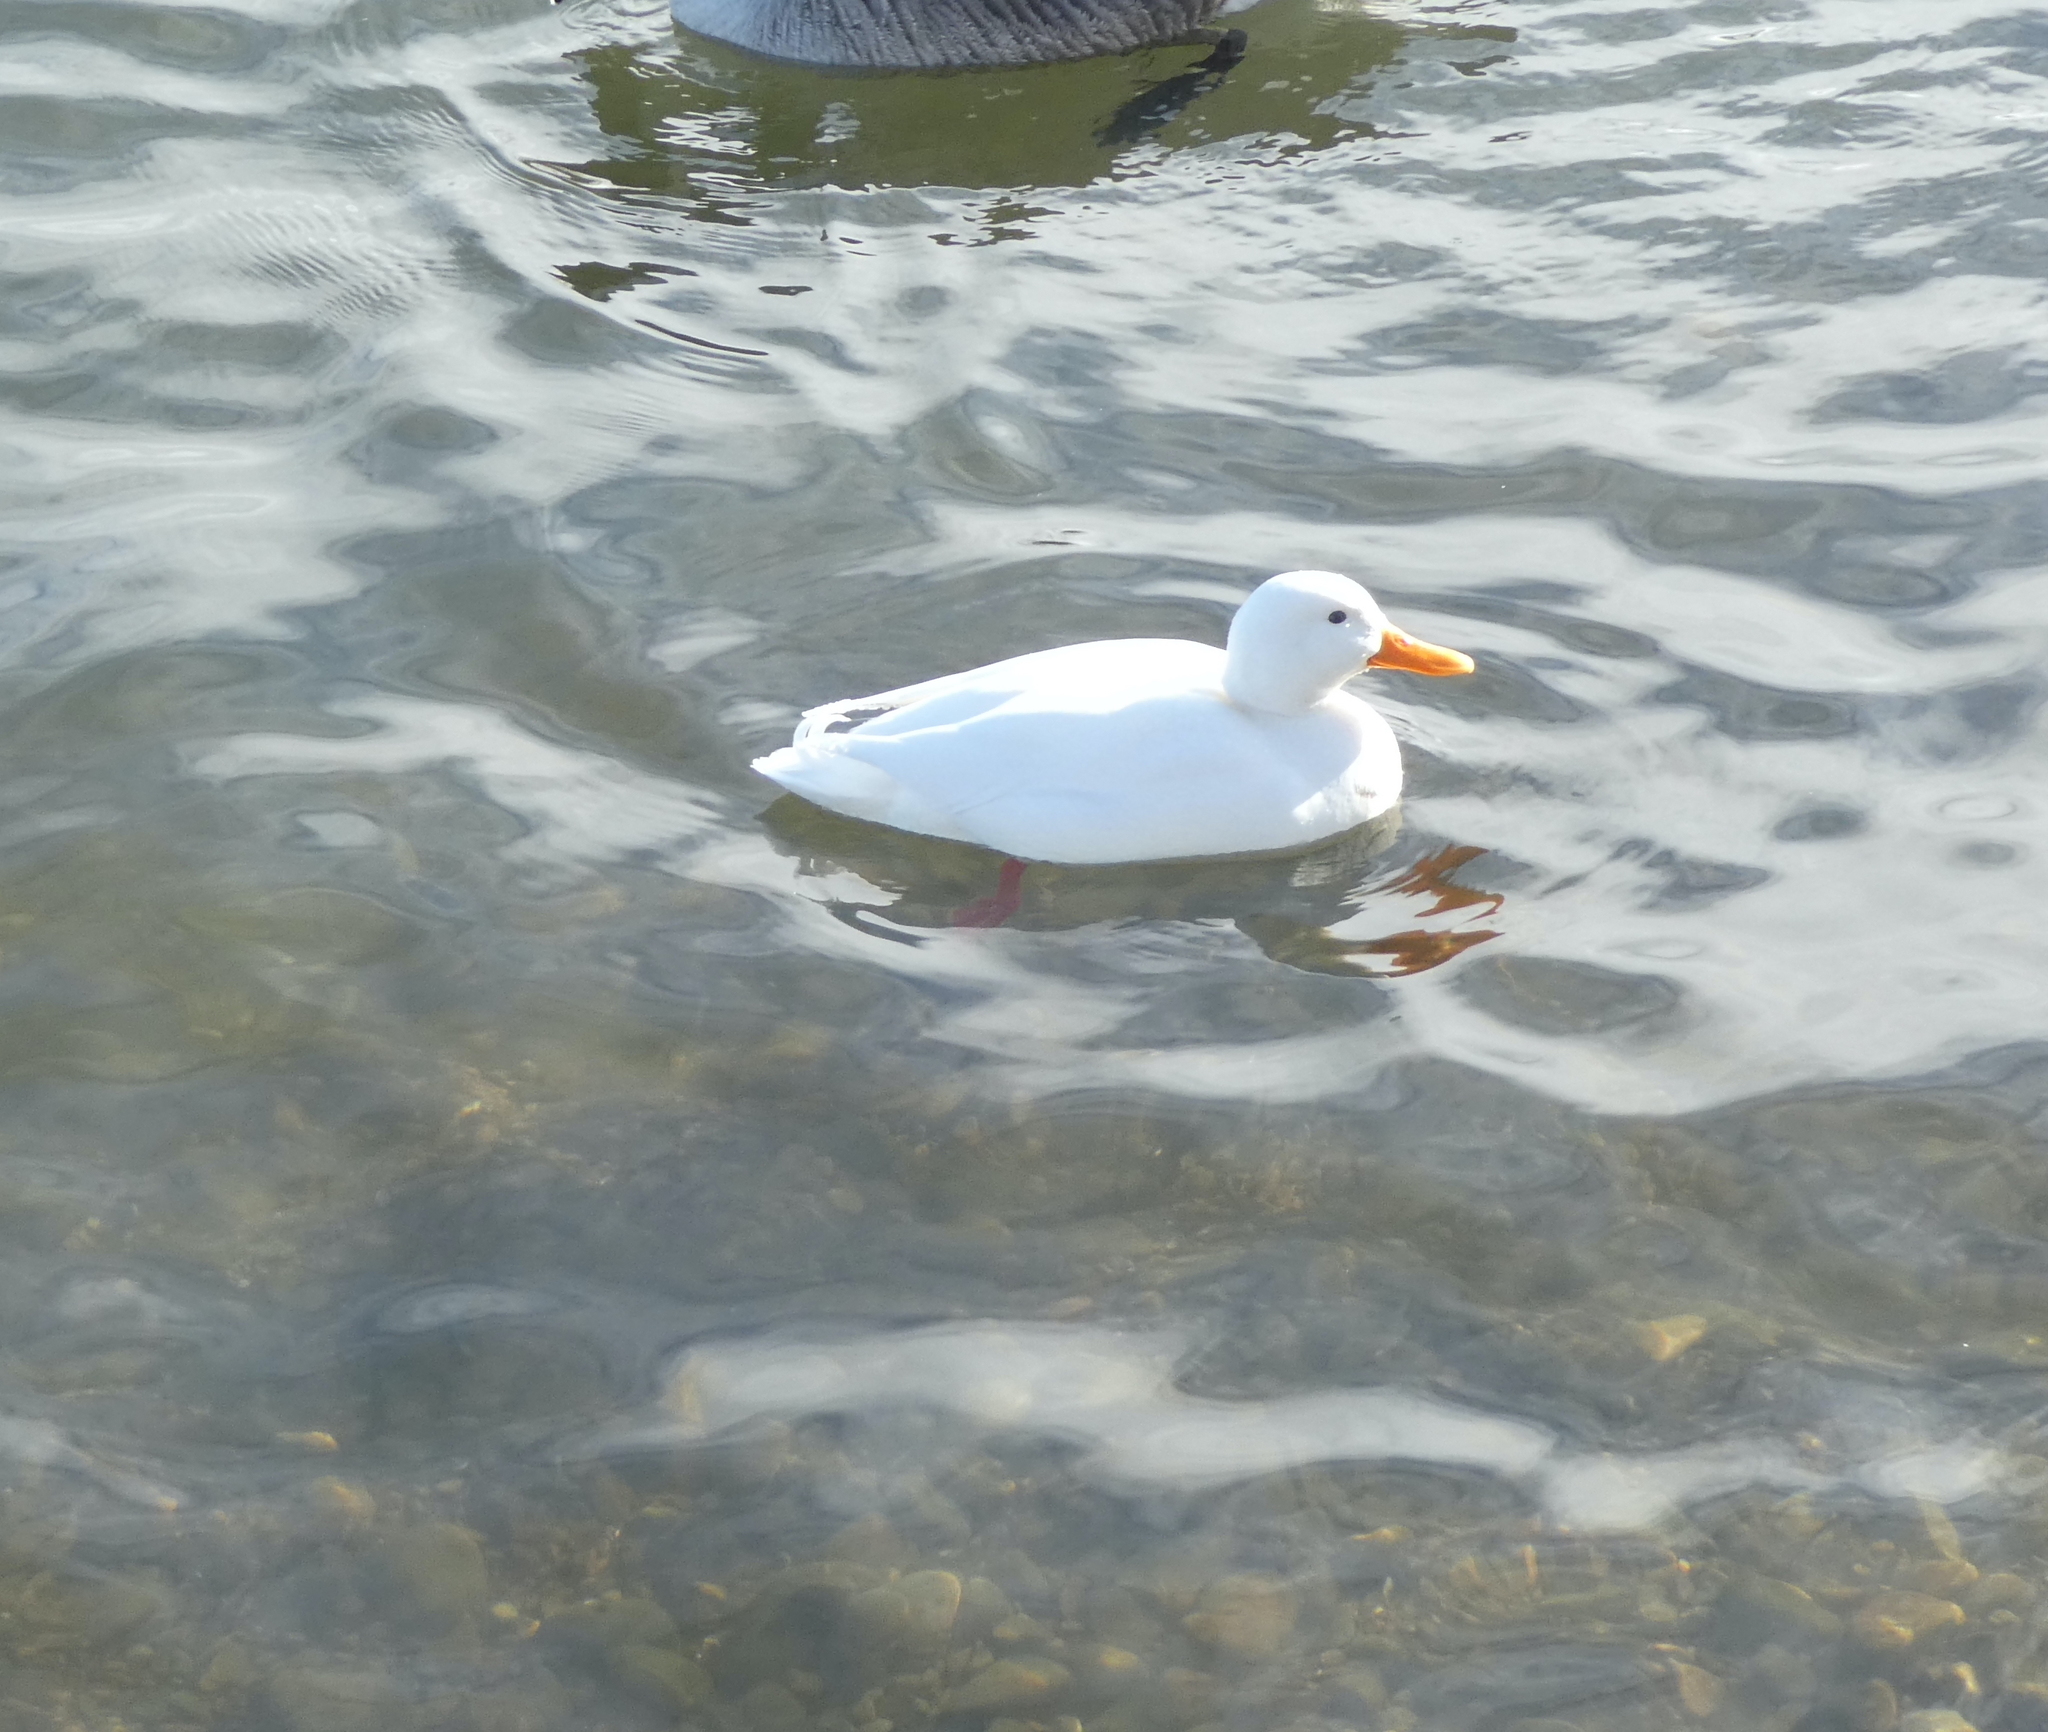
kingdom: Animalia
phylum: Chordata
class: Aves
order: Anseriformes
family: Anatidae
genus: Anas
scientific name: Anas platyrhynchos
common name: Mallard
